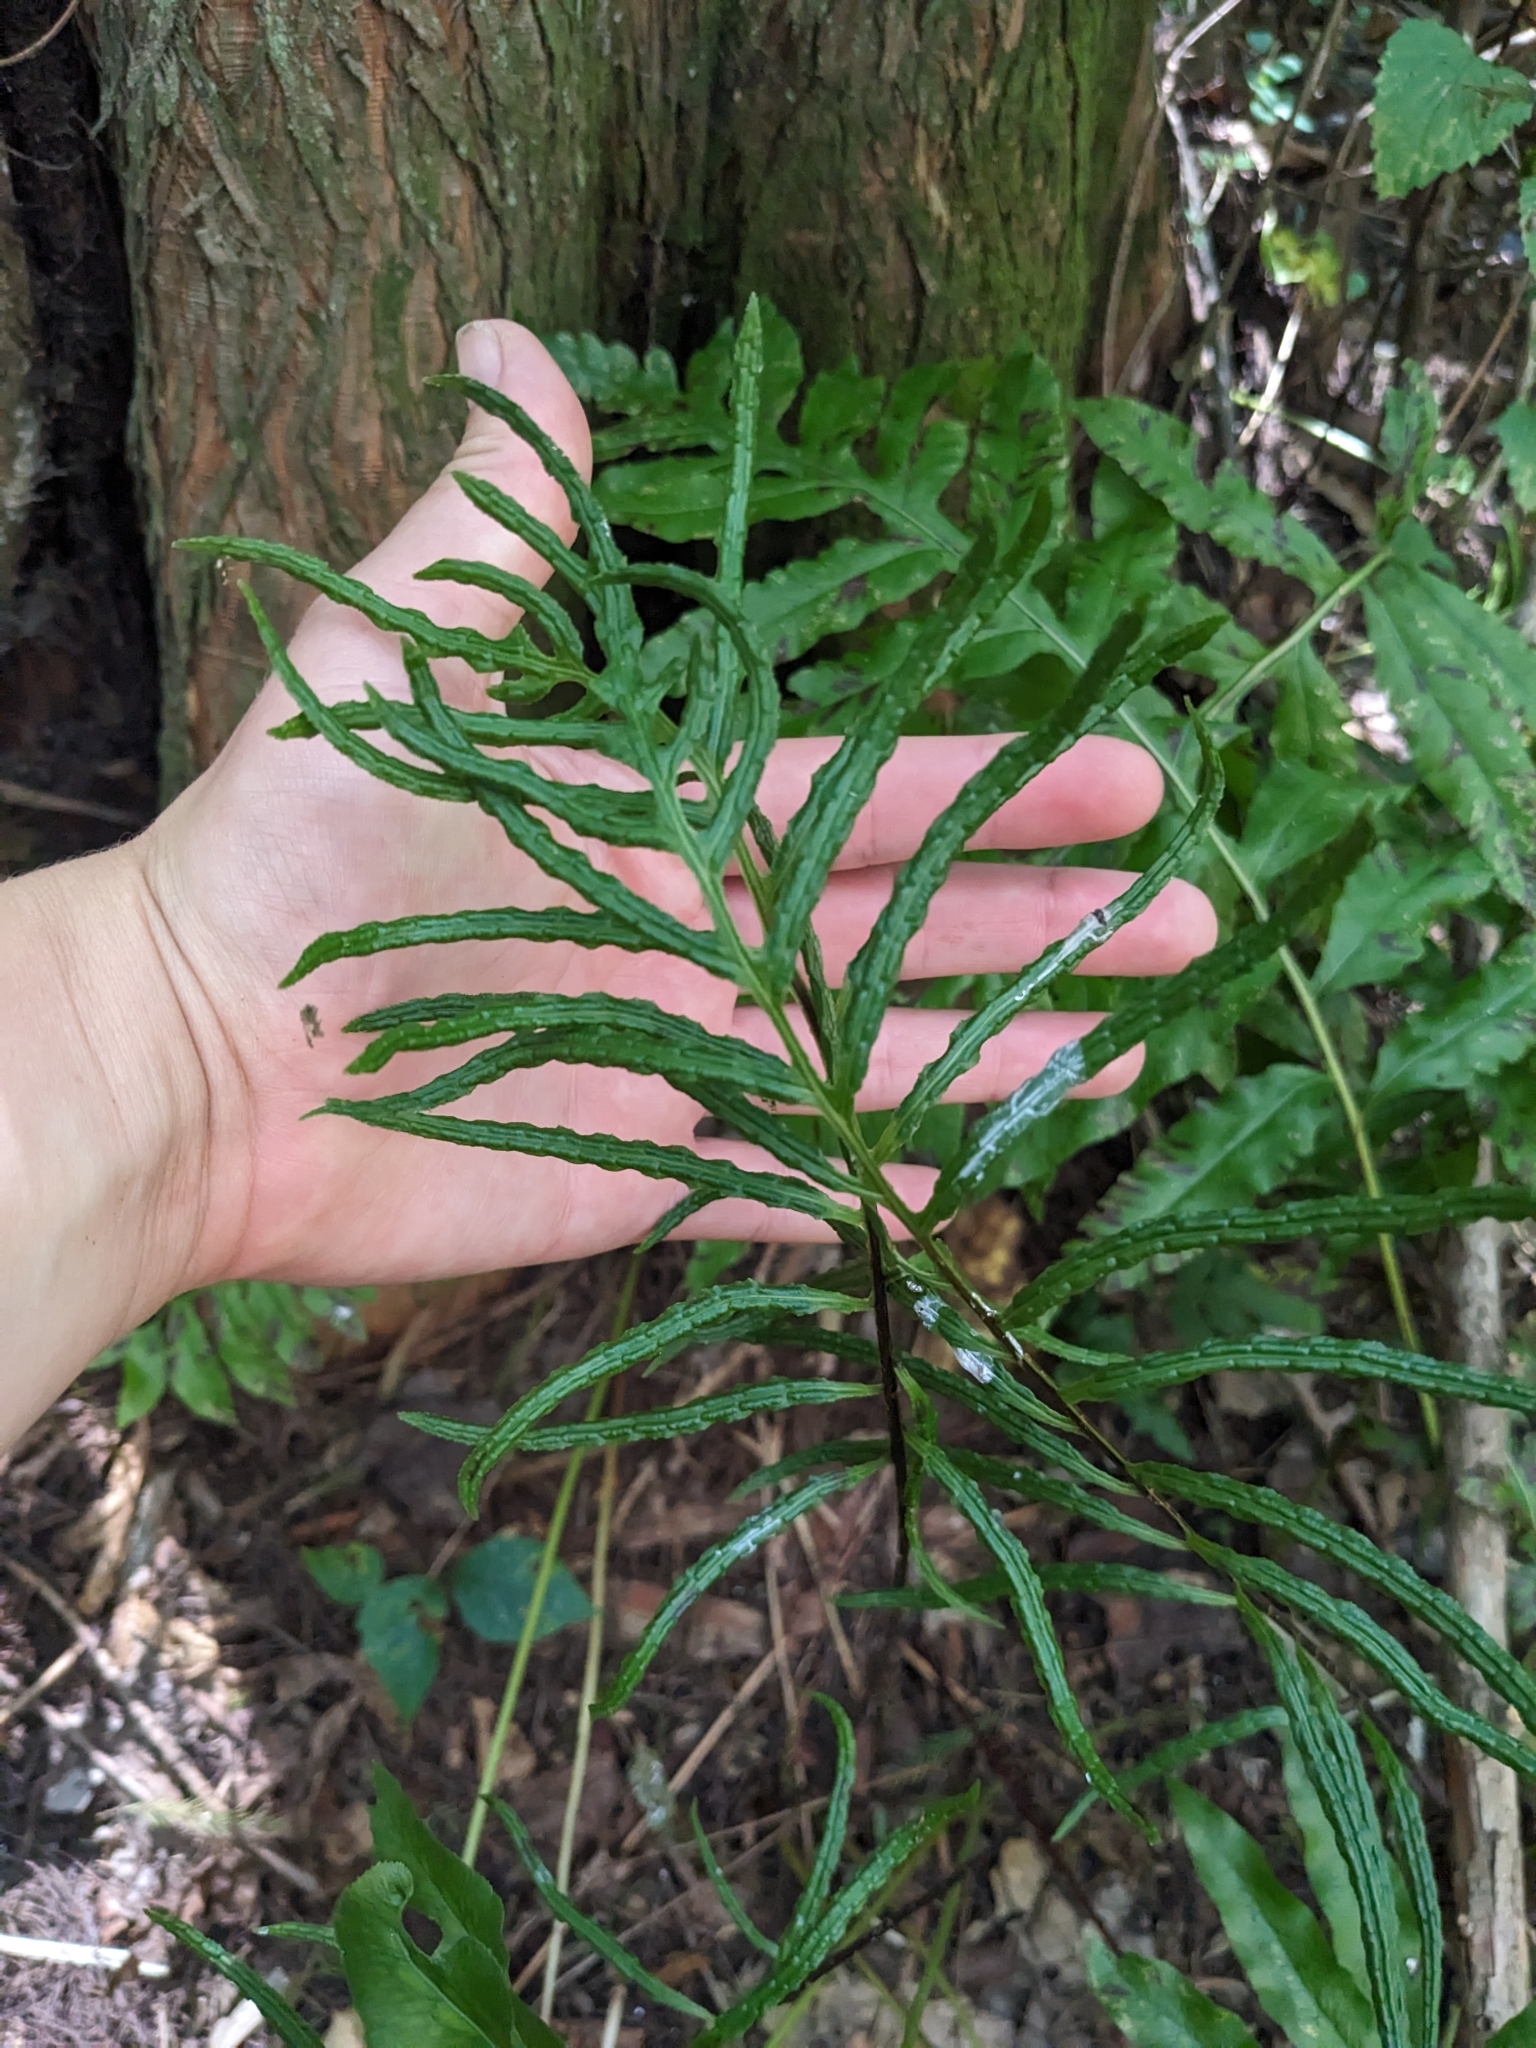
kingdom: Plantae
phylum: Tracheophyta
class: Polypodiopsida
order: Polypodiales
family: Blechnaceae
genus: Lorinseria
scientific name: Lorinseria areolata
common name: Dwarf chain fern
